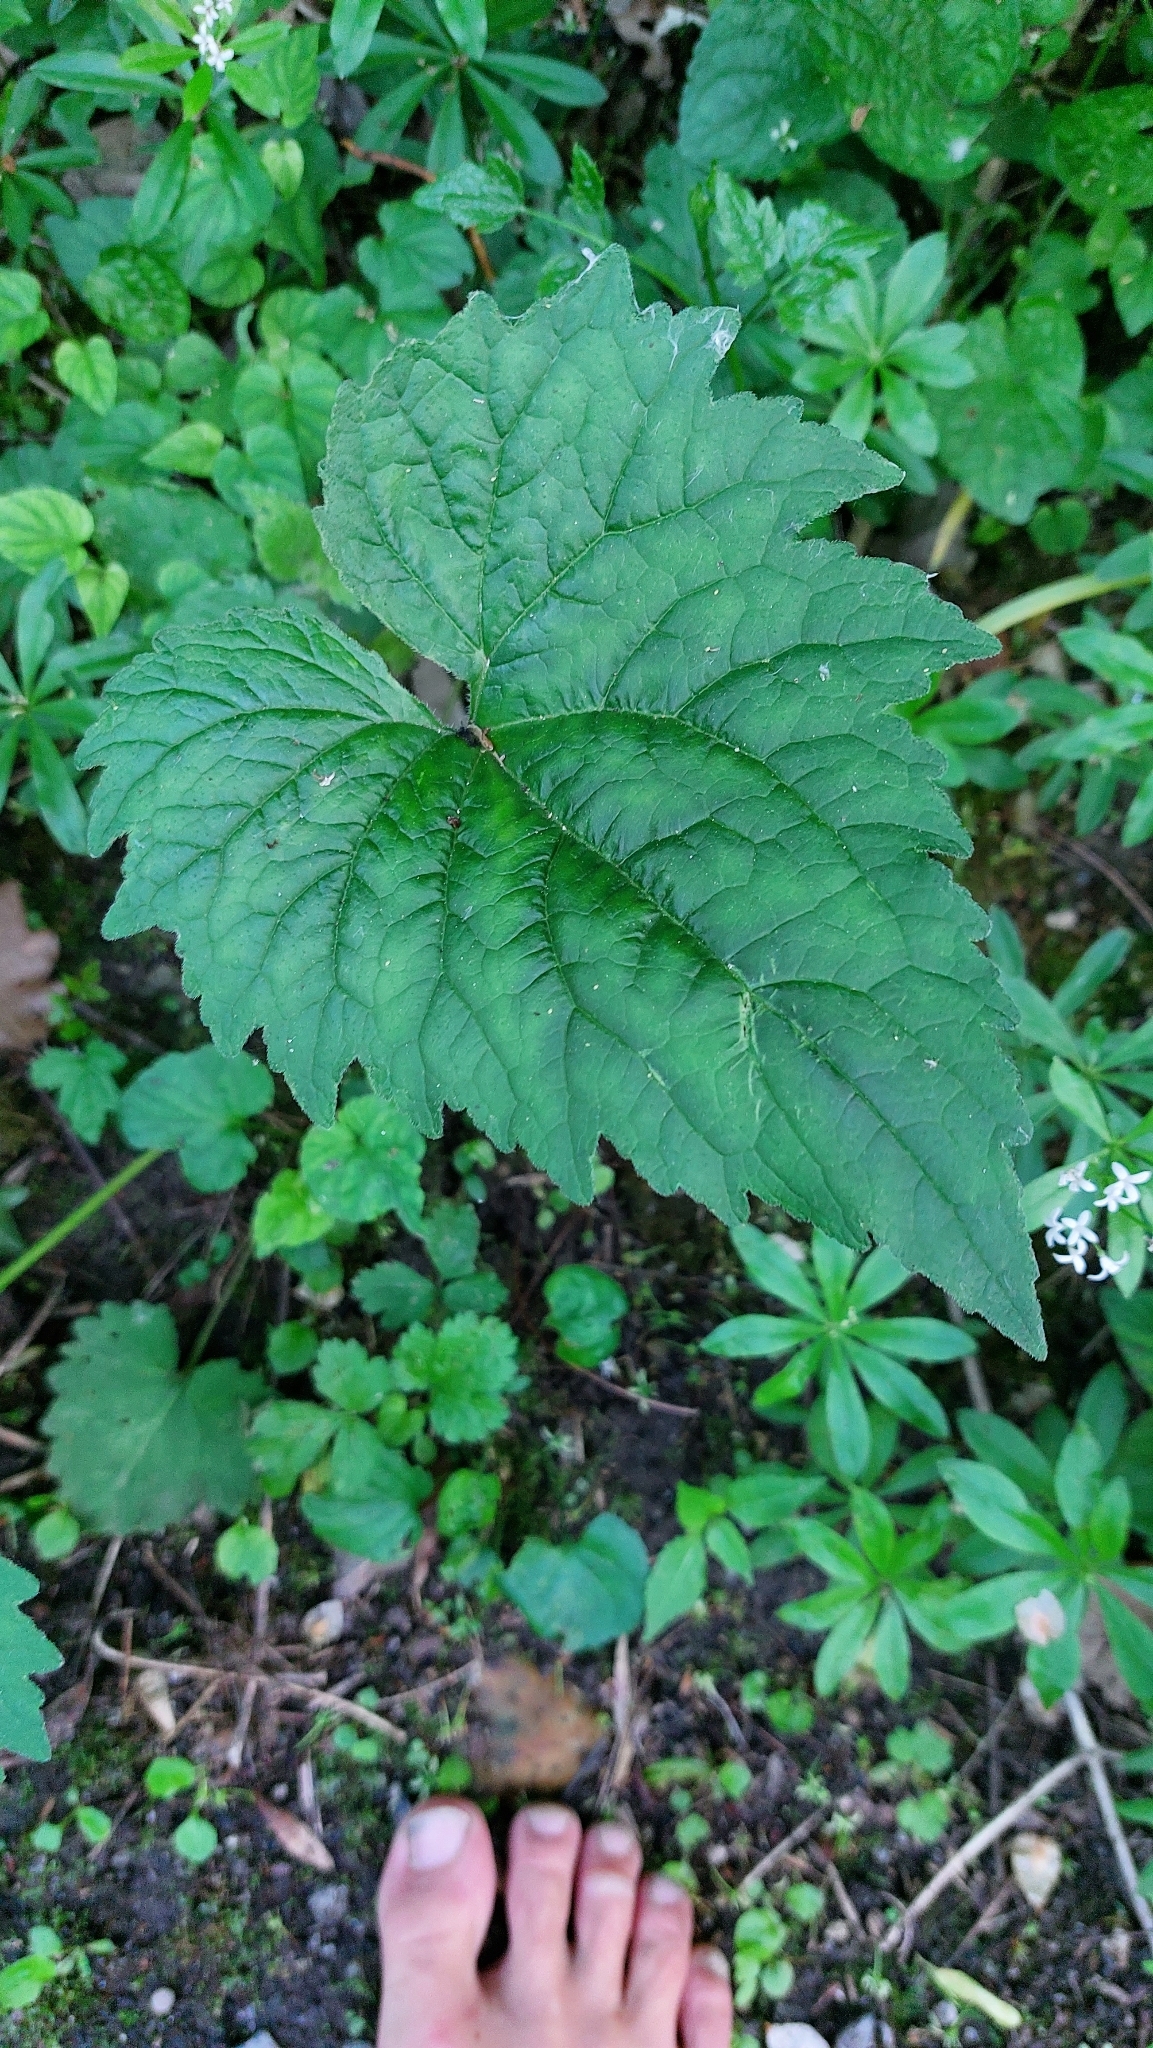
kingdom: Plantae
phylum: Tracheophyta
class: Magnoliopsida
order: Asterales
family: Campanulaceae
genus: Campanula
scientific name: Campanula trachelium
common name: Nettle-leaved bellflower
